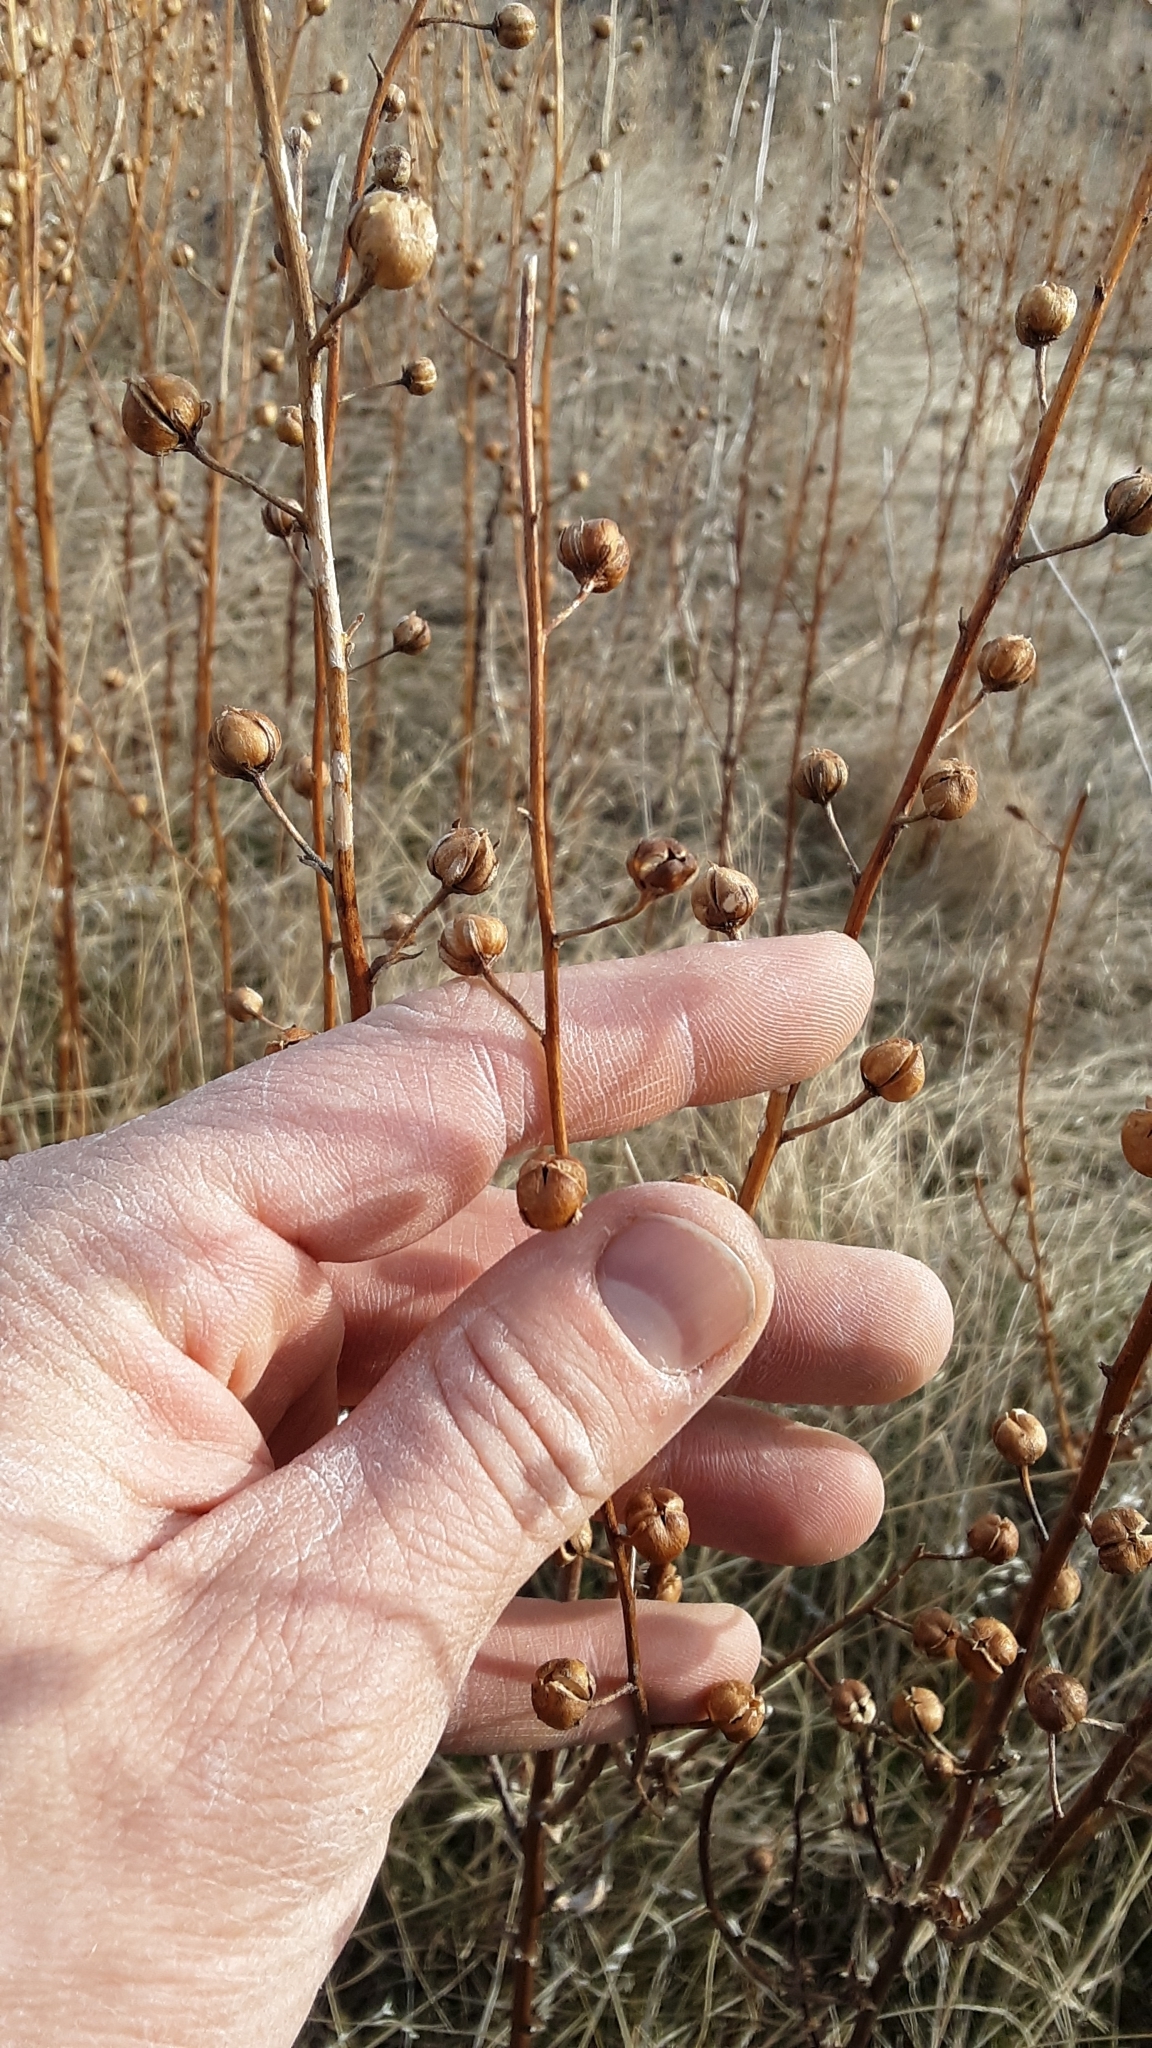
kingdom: Plantae
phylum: Tracheophyta
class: Magnoliopsida
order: Lamiales
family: Scrophulariaceae
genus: Verbascum
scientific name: Verbascum blattaria
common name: Moth mullein
